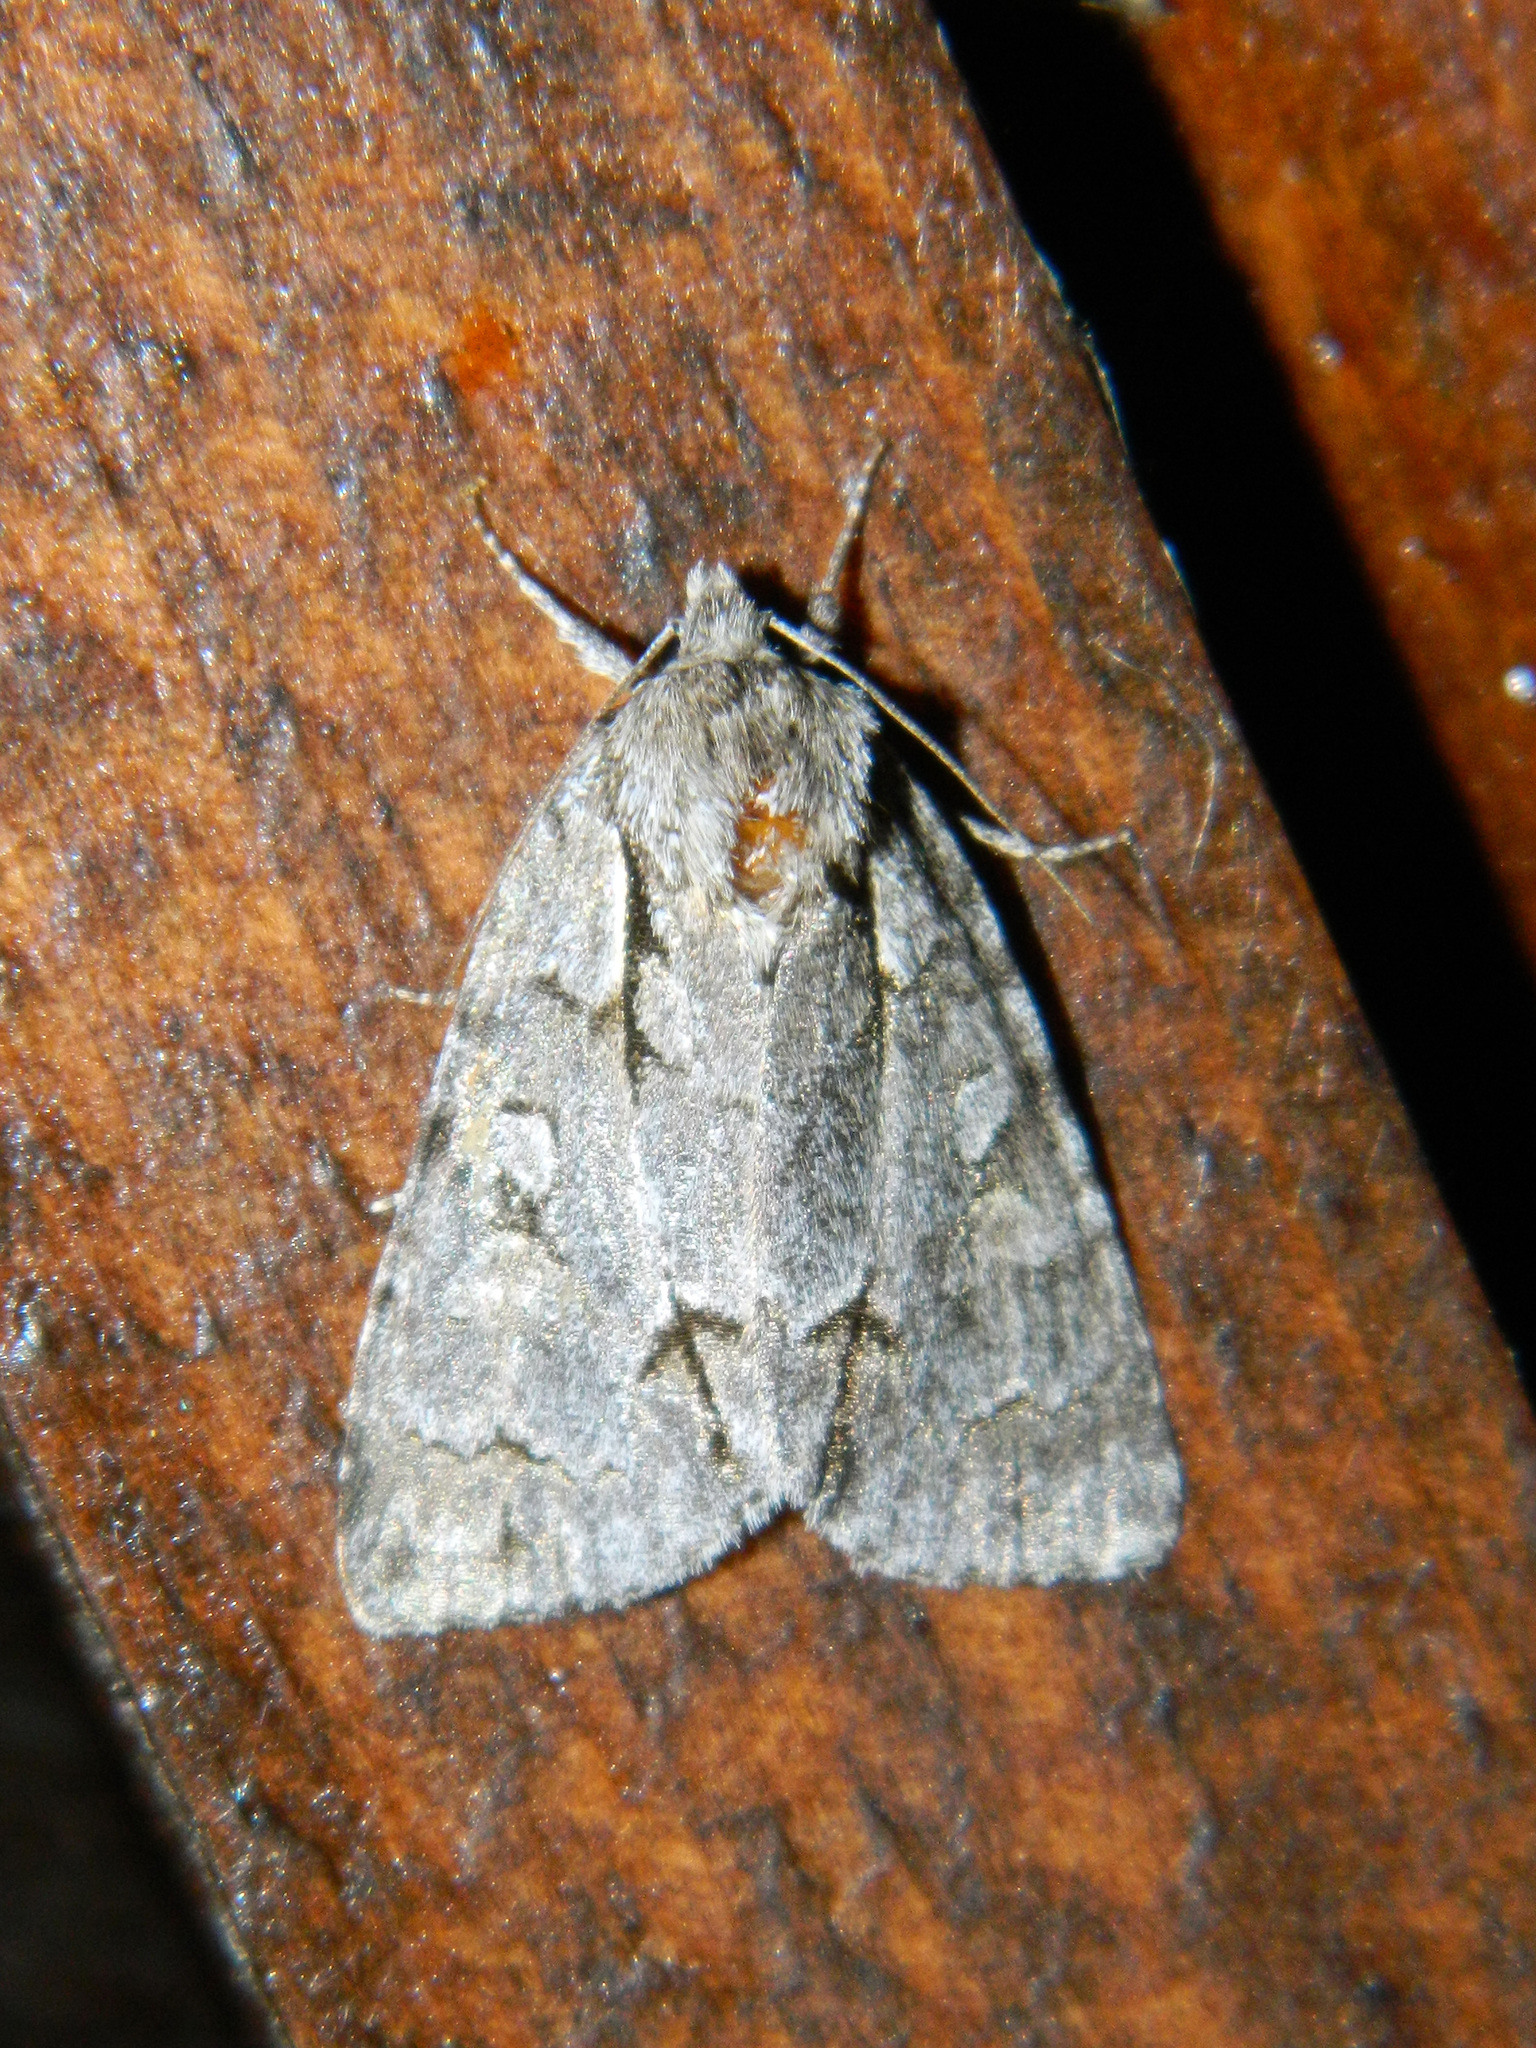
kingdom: Animalia
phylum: Arthropoda
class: Insecta
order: Lepidoptera
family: Noctuidae
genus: Acronicta
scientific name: Acronicta grisea
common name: Gray dagger
